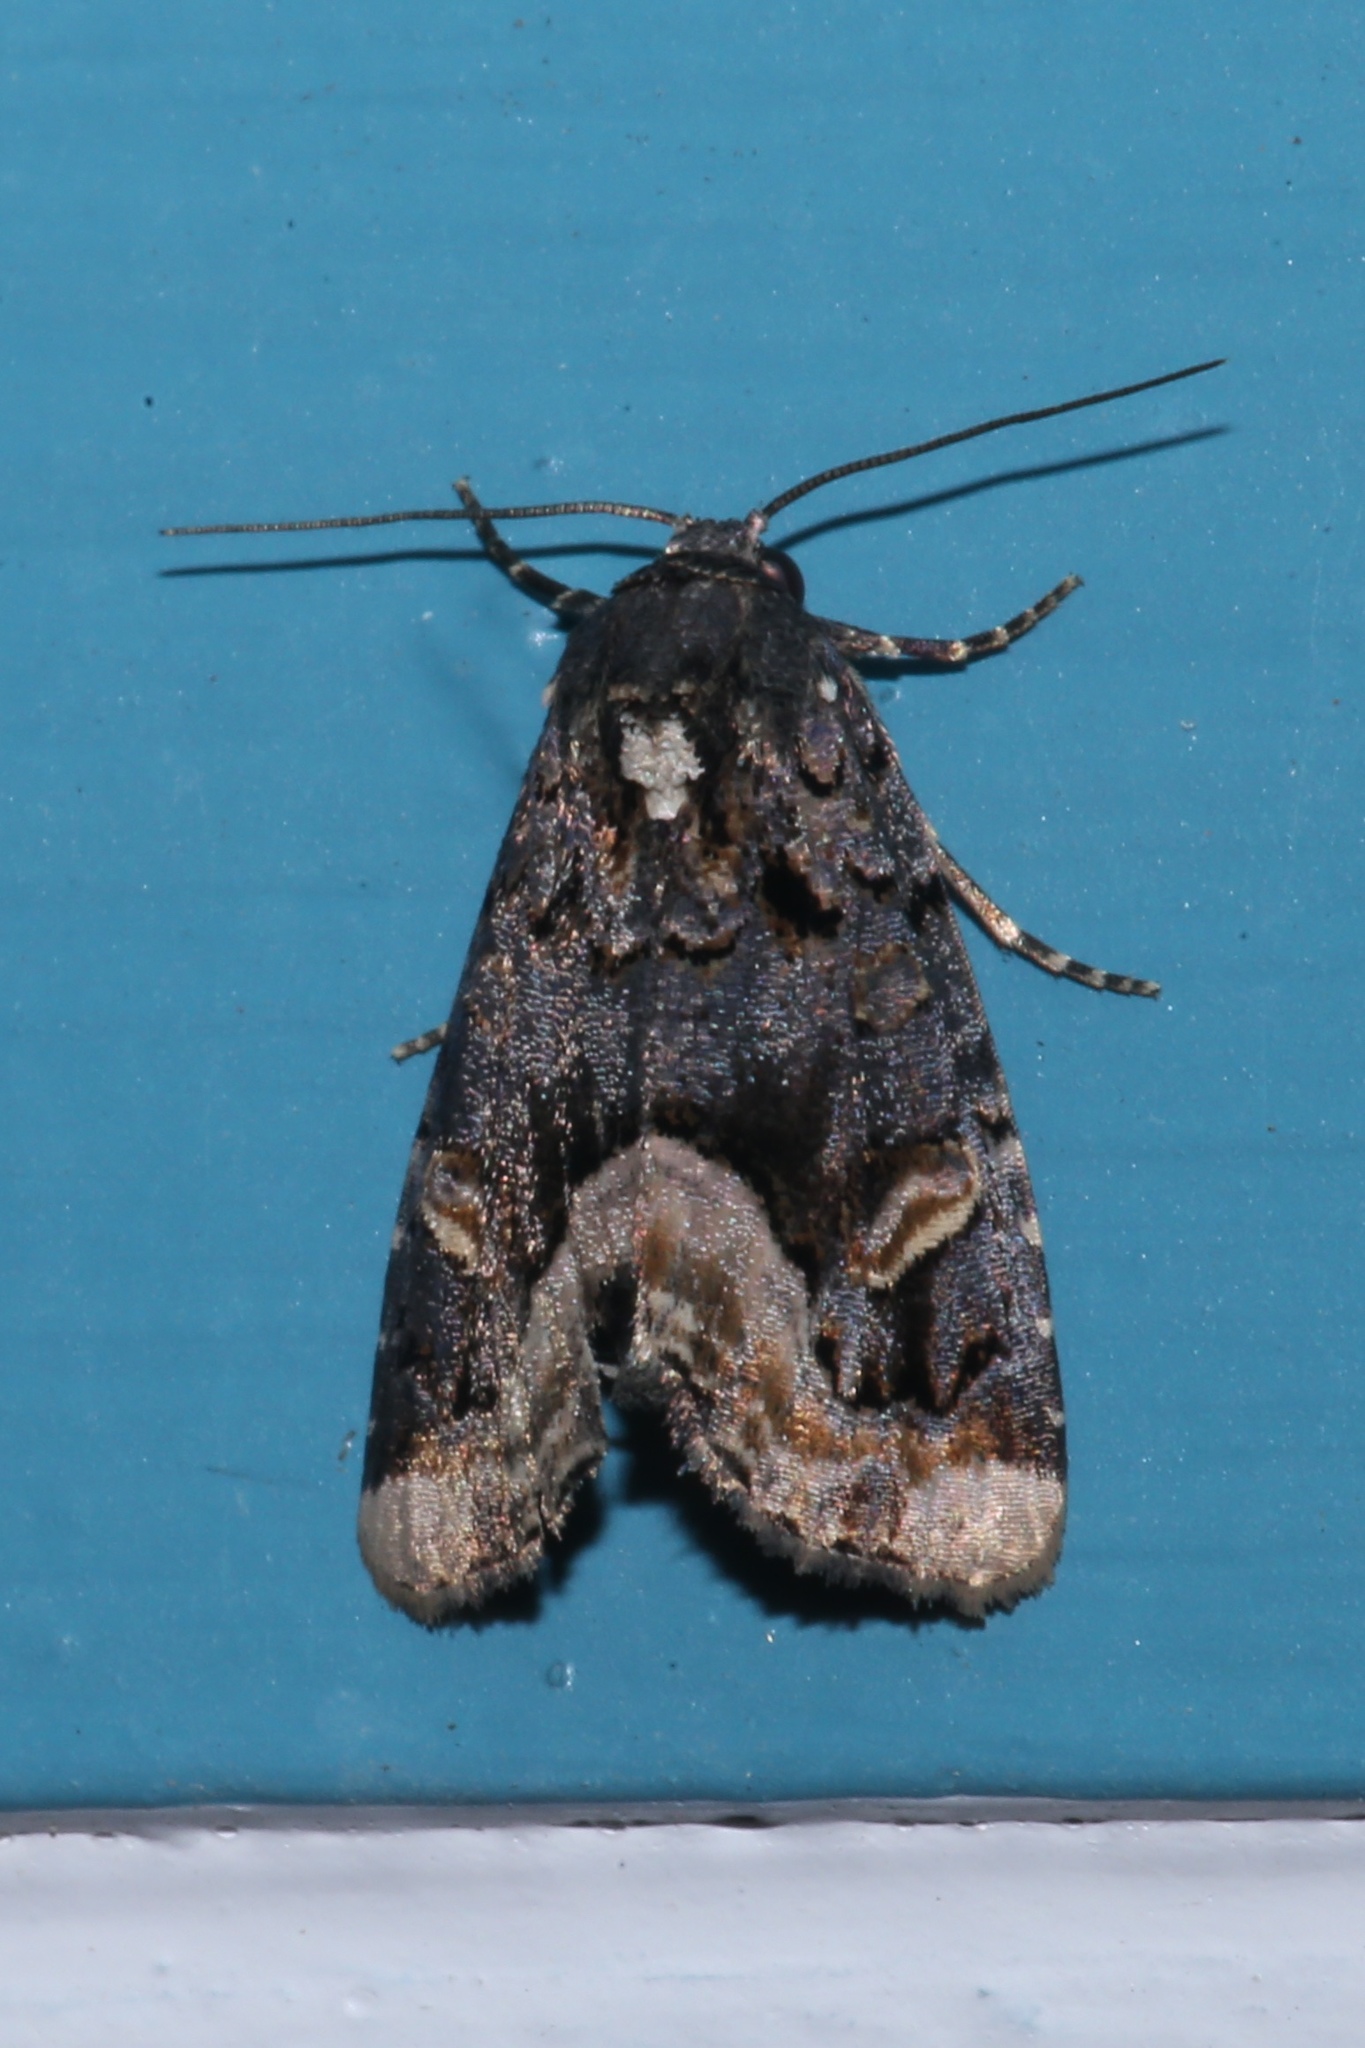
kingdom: Animalia
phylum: Arthropoda
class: Insecta
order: Lepidoptera
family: Noctuidae
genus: Homophoberia
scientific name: Homophoberia apicosa
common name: Black wedge-spot
